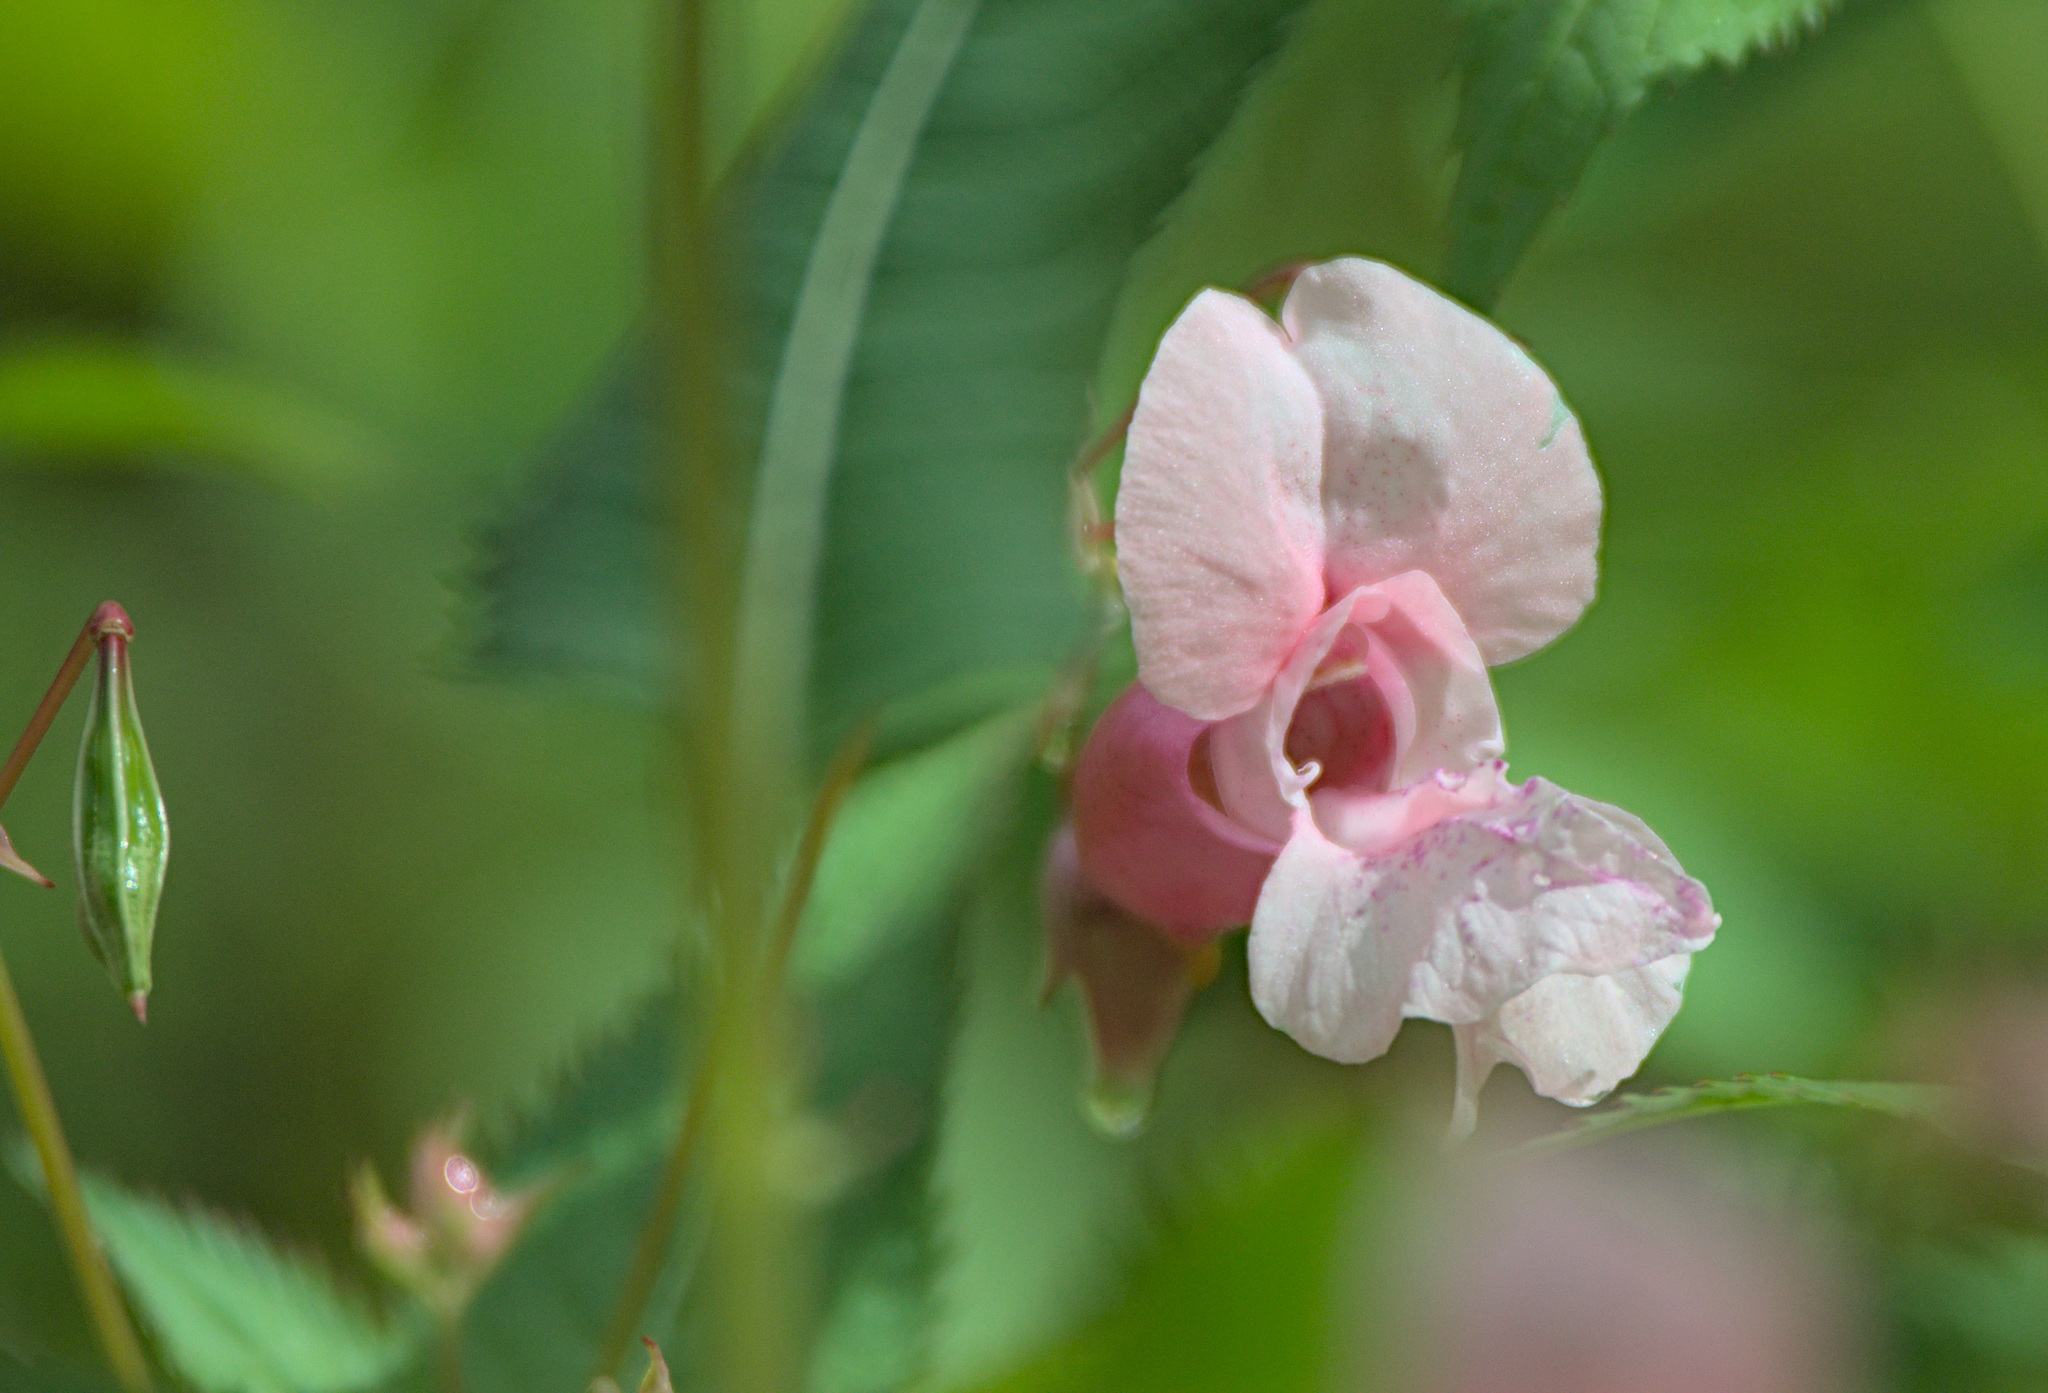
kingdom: Plantae
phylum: Tracheophyta
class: Magnoliopsida
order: Ericales
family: Balsaminaceae
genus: Impatiens
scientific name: Impatiens glandulifera
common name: Himalayan balsam
